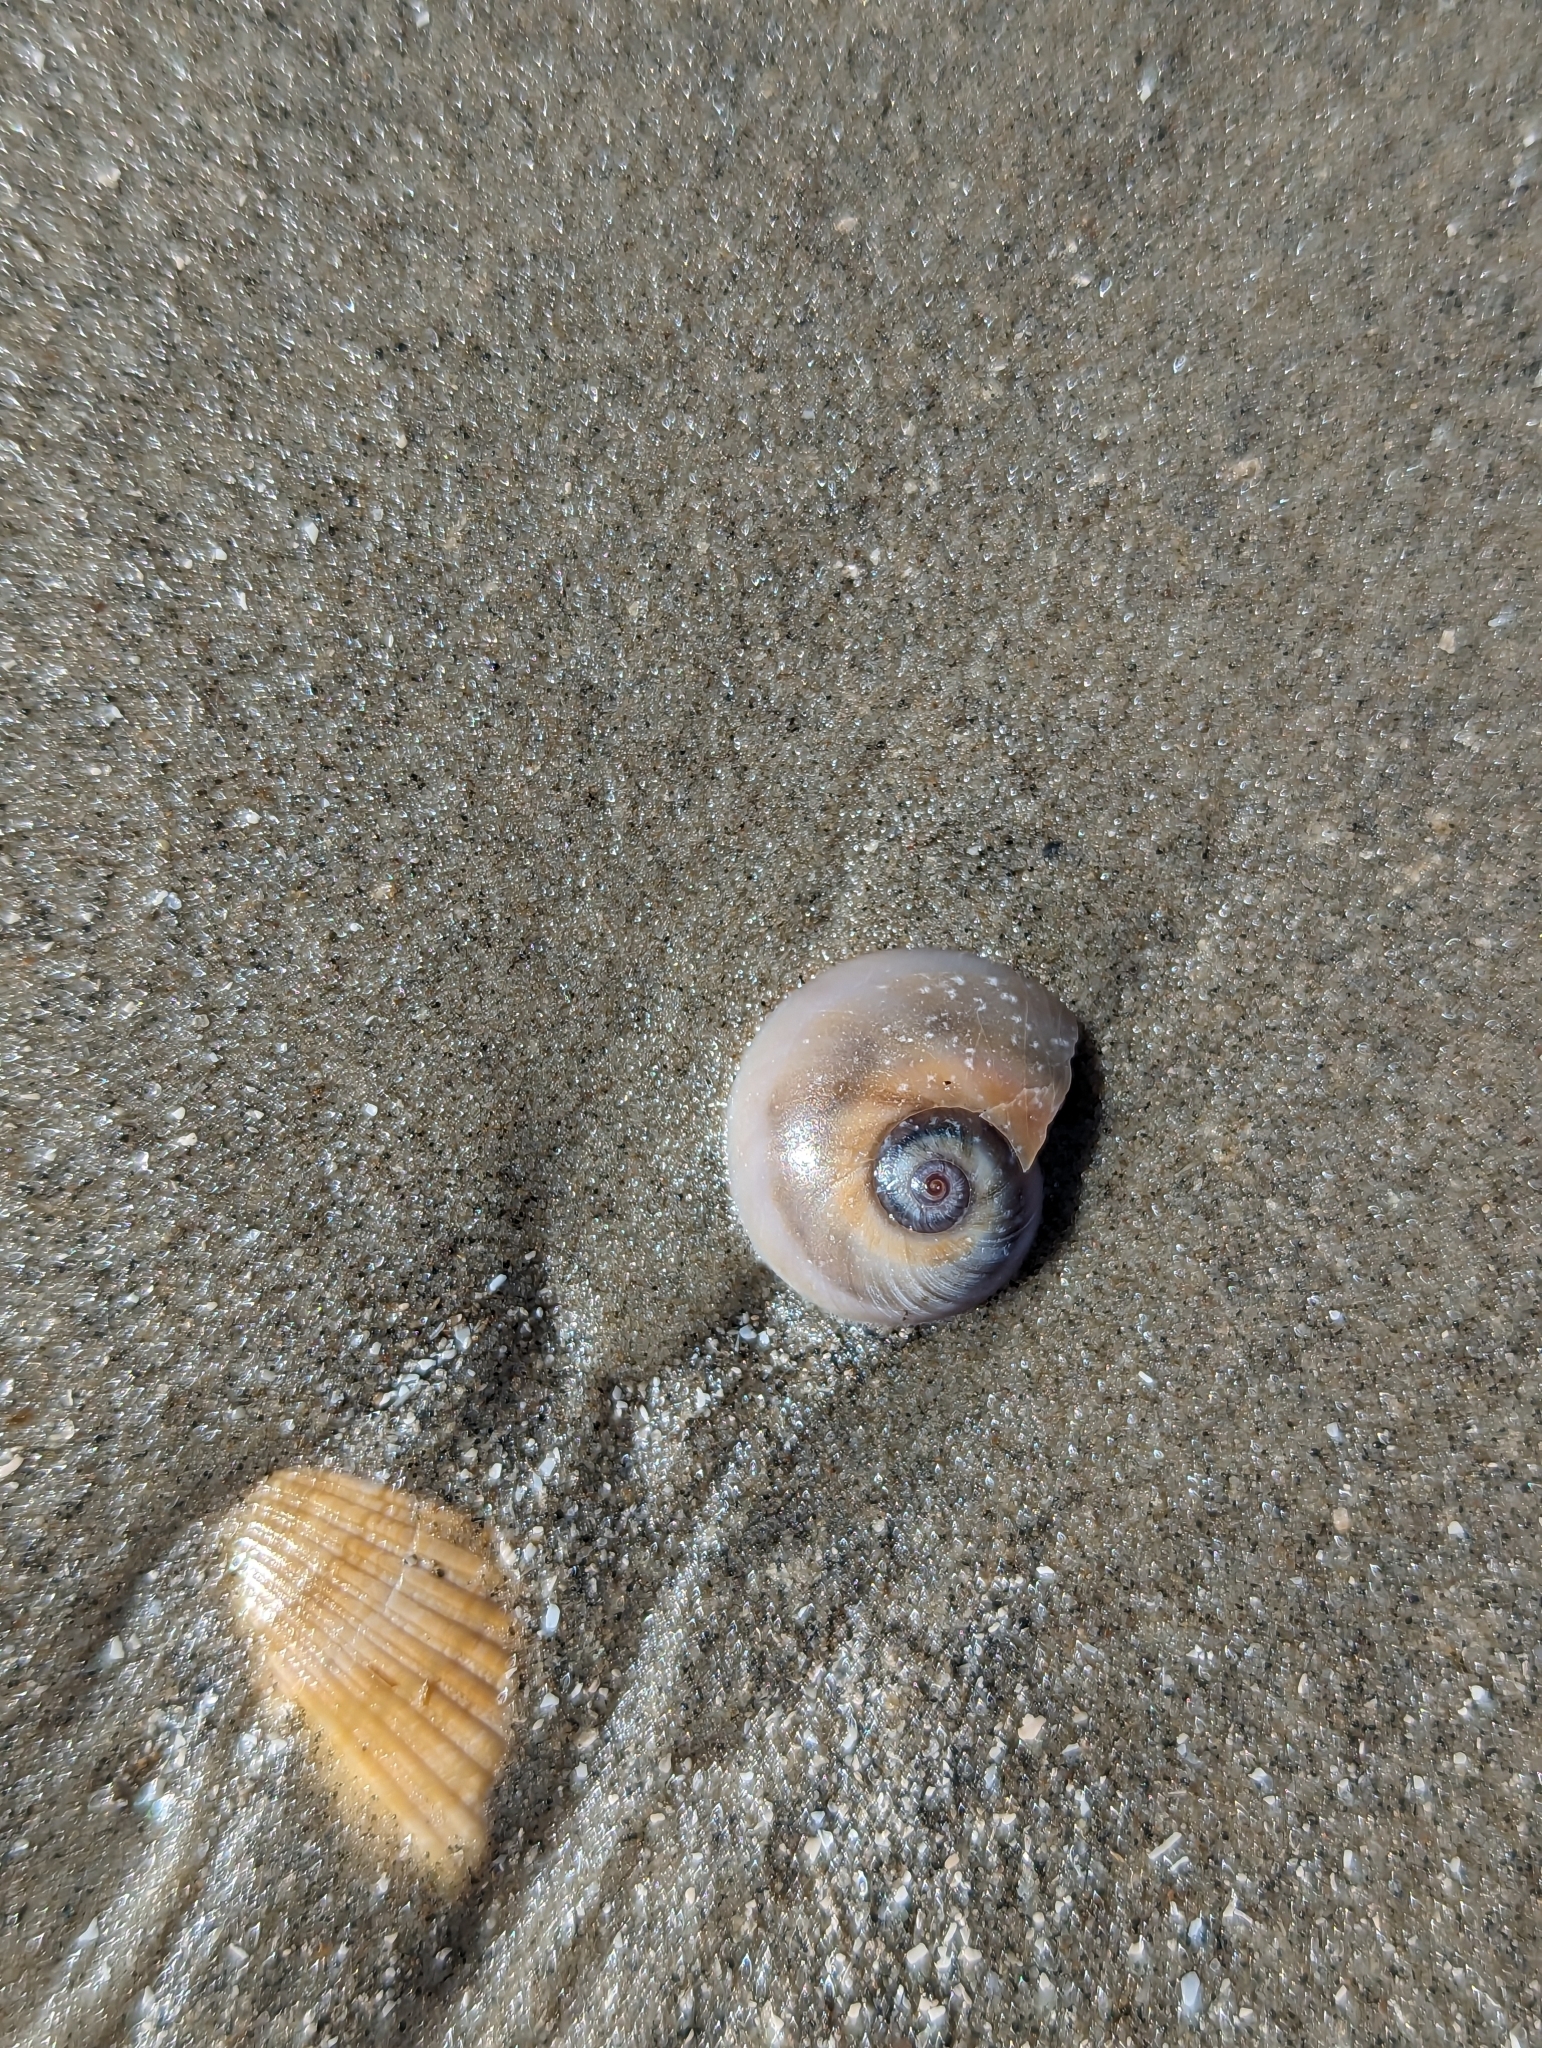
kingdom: Animalia
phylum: Mollusca
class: Gastropoda
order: Littorinimorpha
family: Naticidae
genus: Neverita
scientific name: Neverita duplicata
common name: Lobed moonsnail
